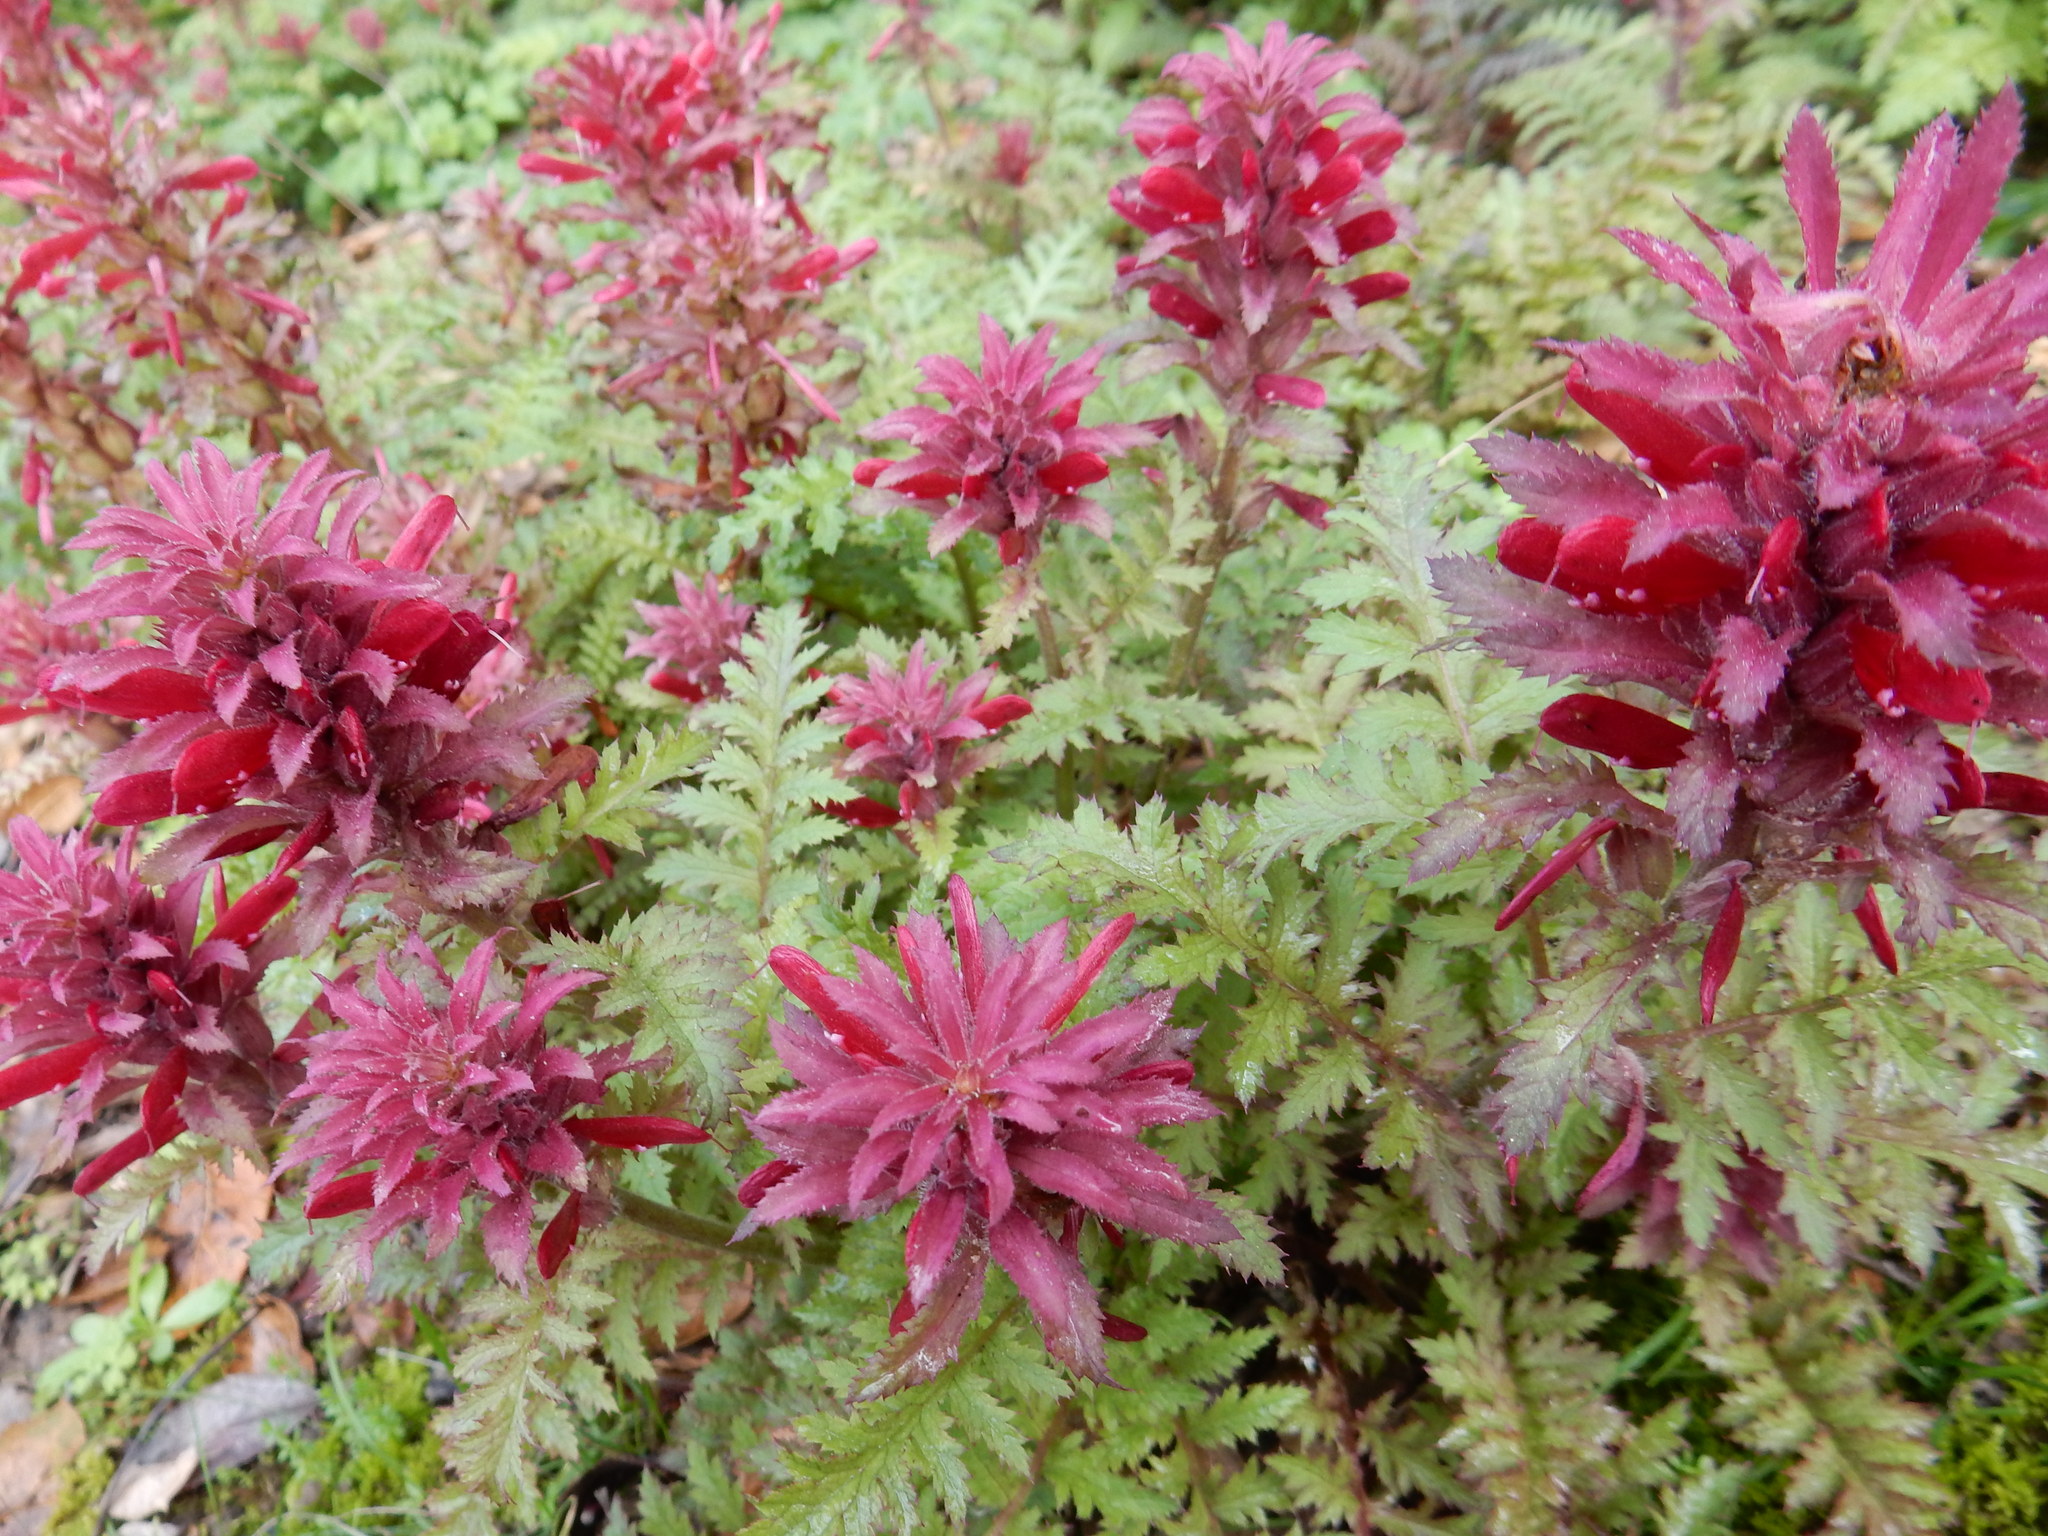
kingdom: Plantae
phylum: Tracheophyta
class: Magnoliopsida
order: Lamiales
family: Orobanchaceae
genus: Pedicularis
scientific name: Pedicularis densiflora
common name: Indian warrior
